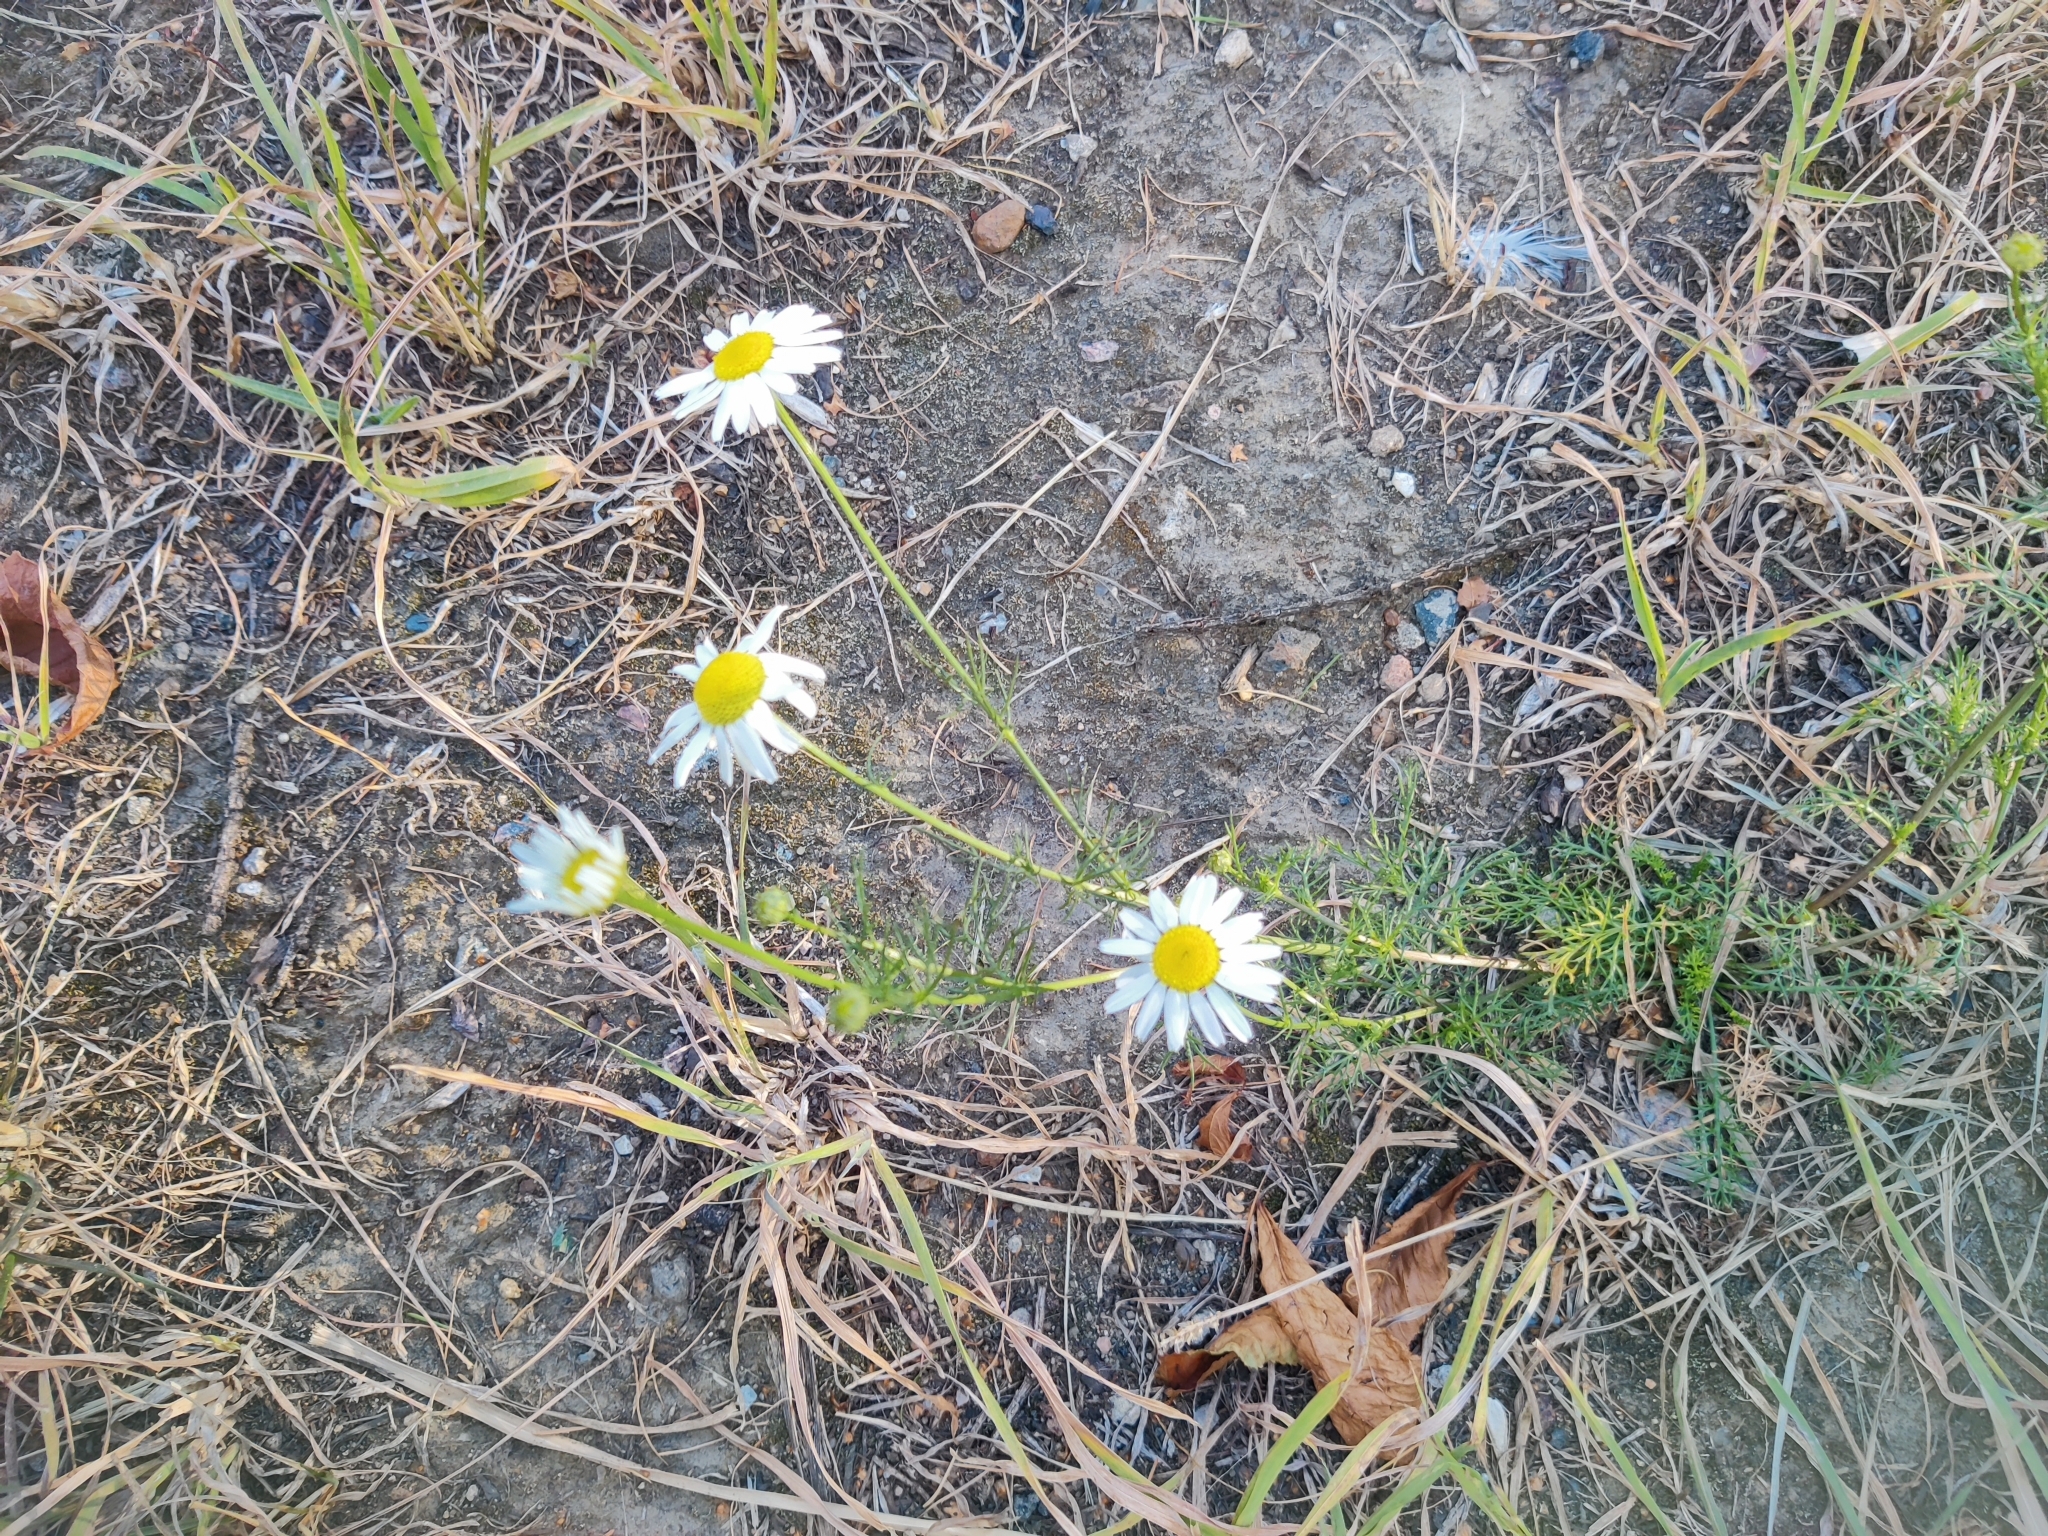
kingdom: Plantae
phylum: Tracheophyta
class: Magnoliopsida
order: Asterales
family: Asteraceae
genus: Tripleurospermum
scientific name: Tripleurospermum inodorum
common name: Scentless mayweed
